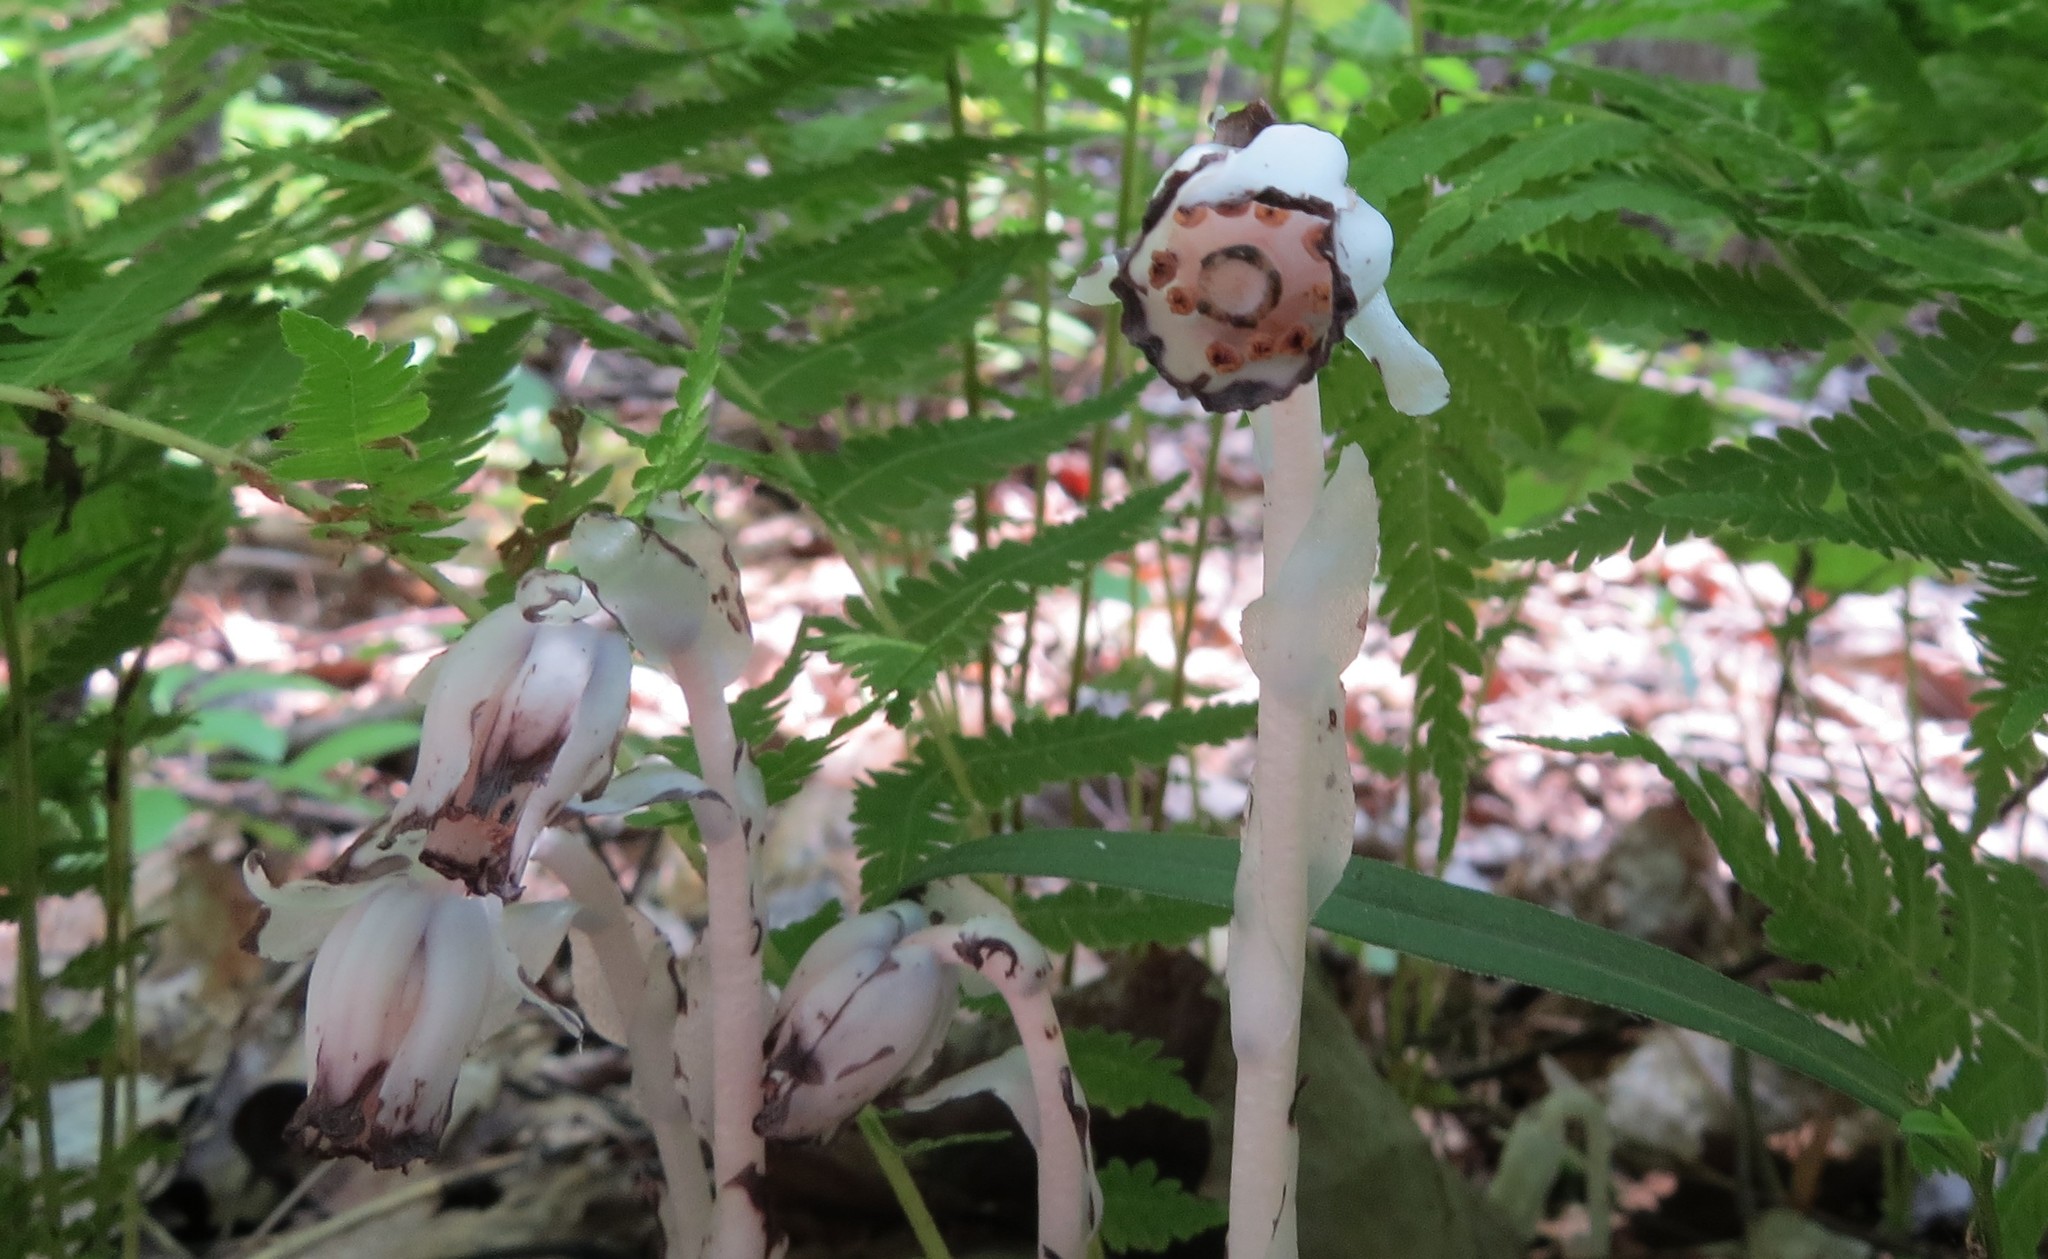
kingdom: Plantae
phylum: Tracheophyta
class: Magnoliopsida
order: Ericales
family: Ericaceae
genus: Monotropa
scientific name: Monotropa uniflora
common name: Convulsion root
